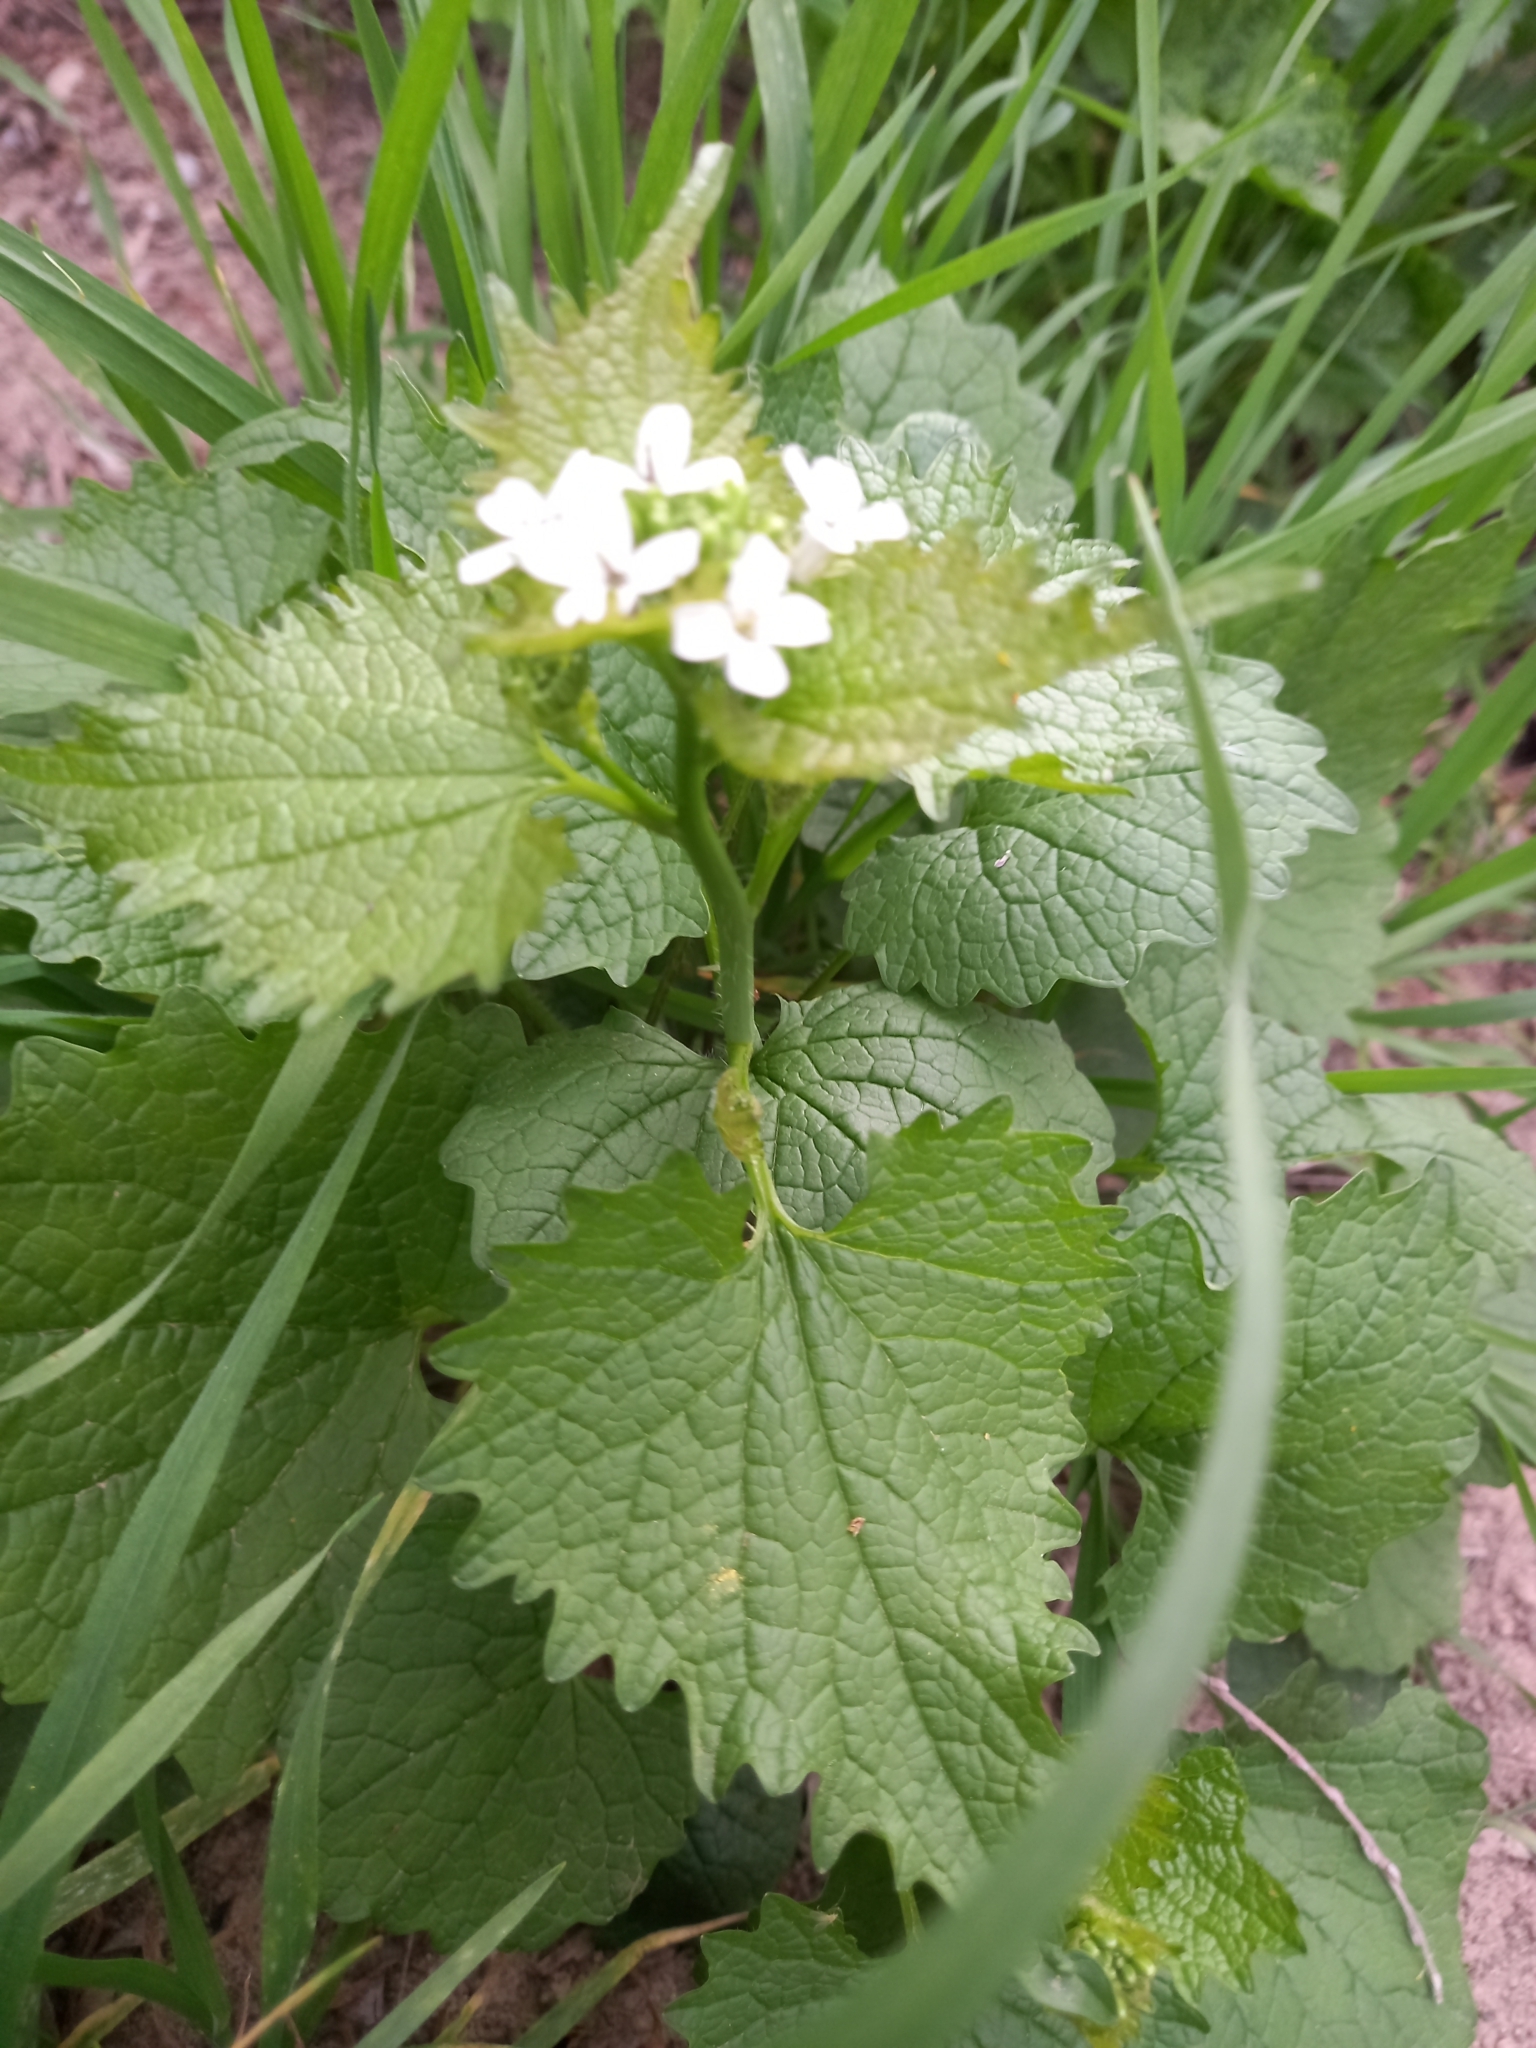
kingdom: Plantae
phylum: Tracheophyta
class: Magnoliopsida
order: Brassicales
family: Brassicaceae
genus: Alliaria
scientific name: Alliaria petiolata
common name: Garlic mustard
